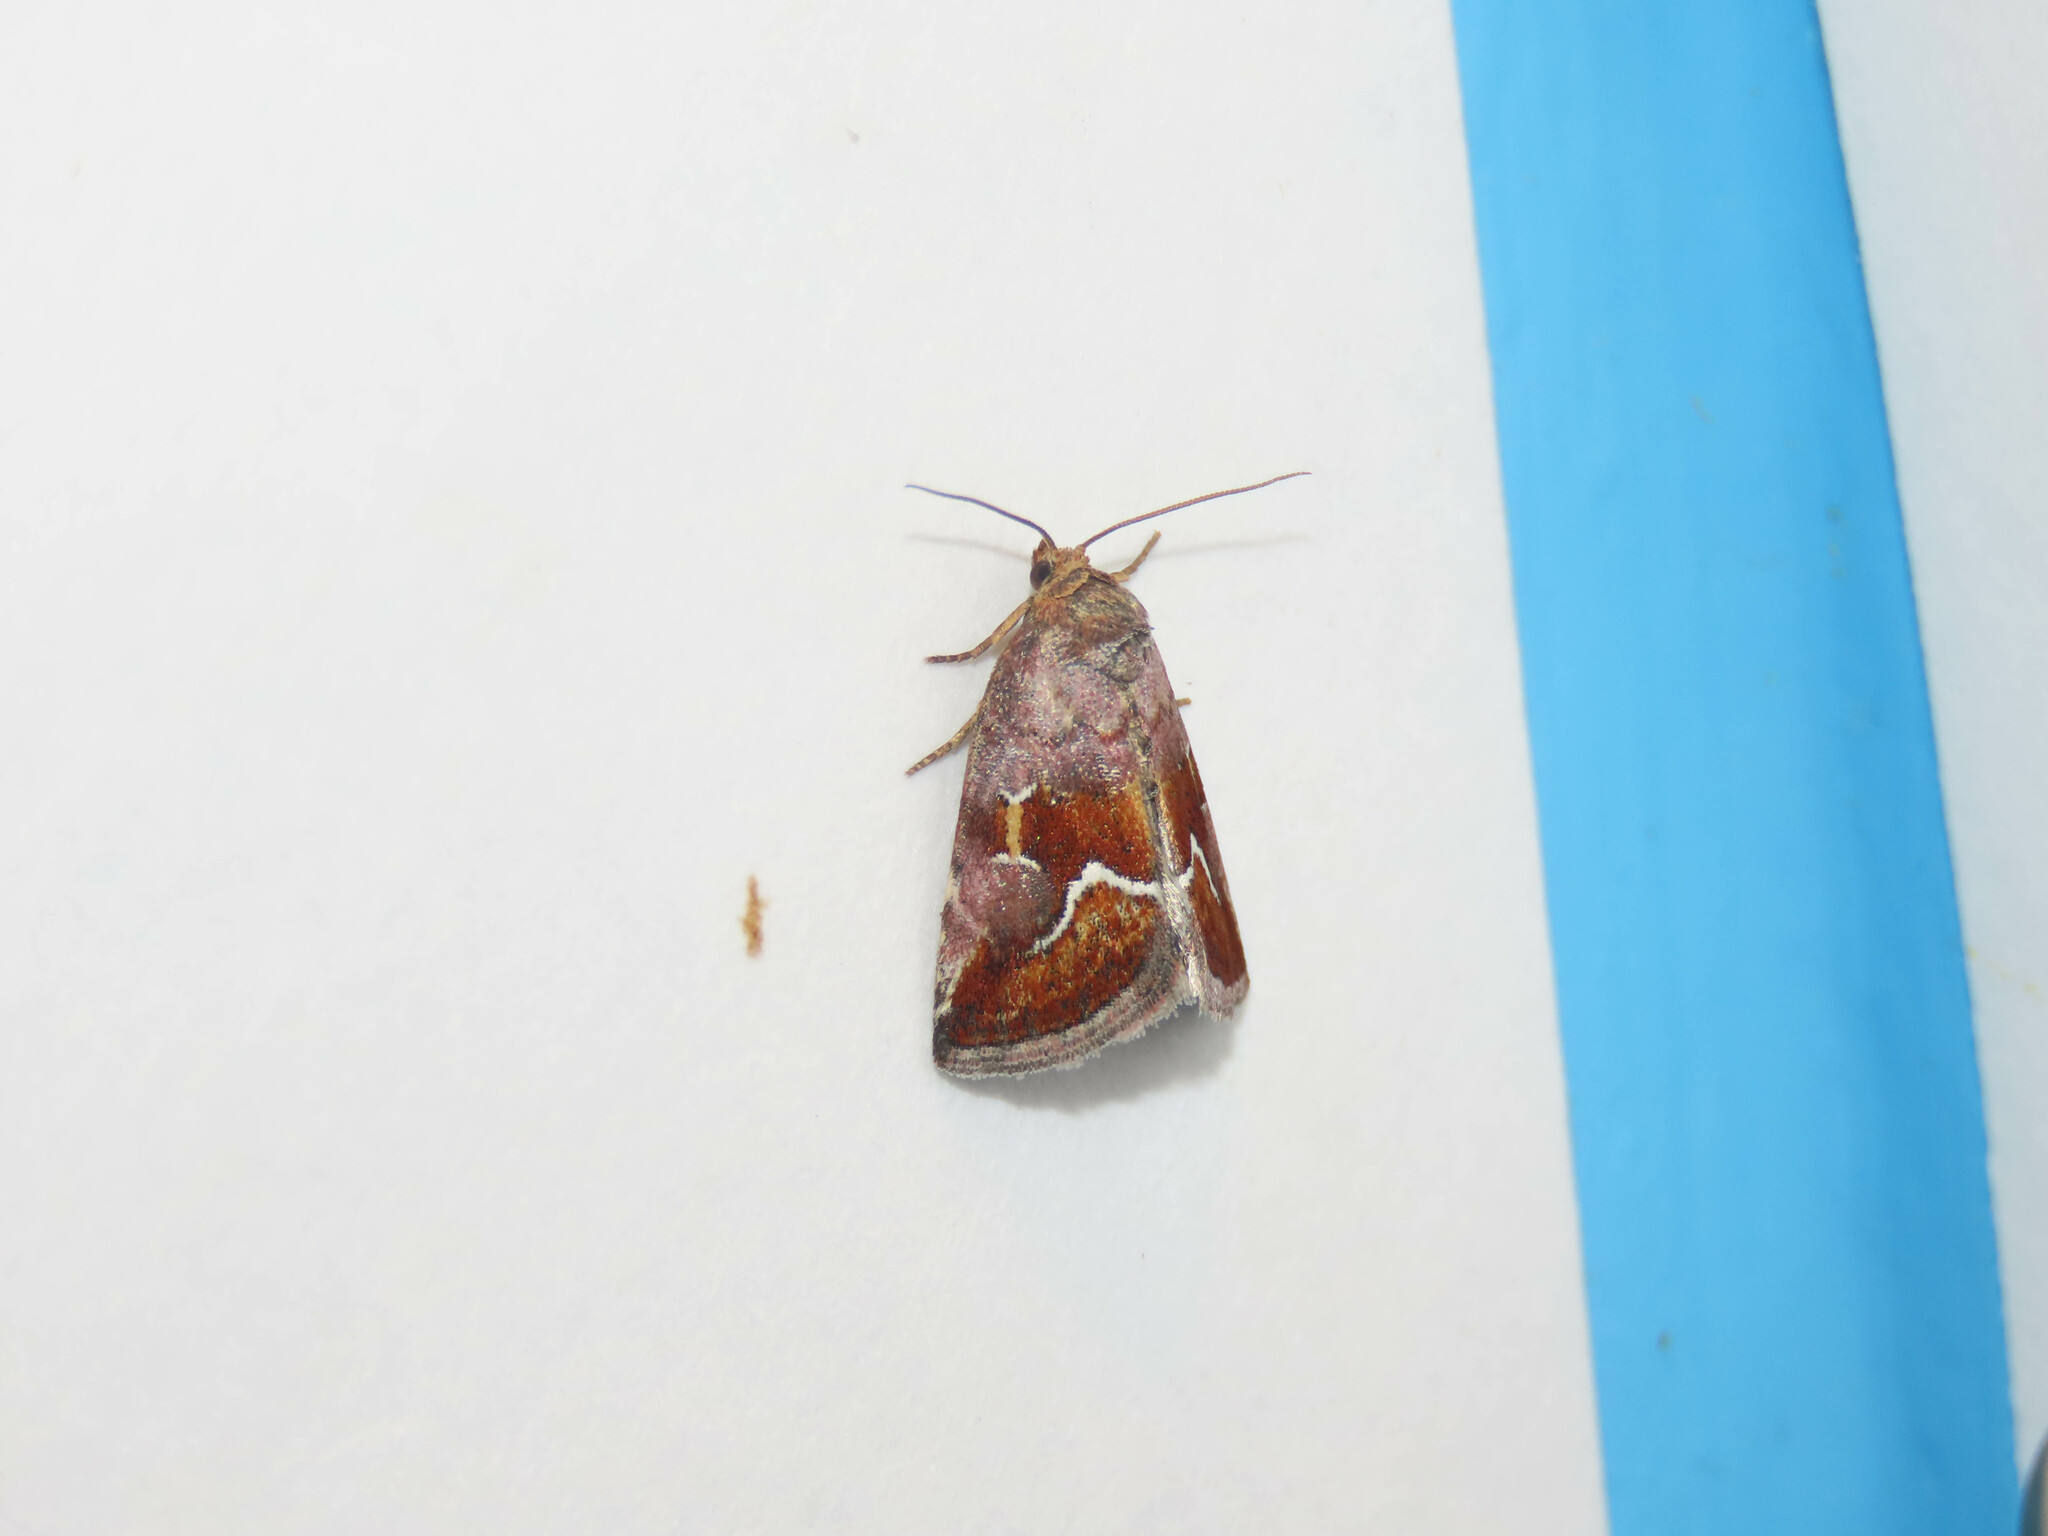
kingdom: Animalia
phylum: Arthropoda
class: Insecta
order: Lepidoptera
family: Noctuidae
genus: Deltote
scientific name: Deltote bellicula
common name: Bog glyph
